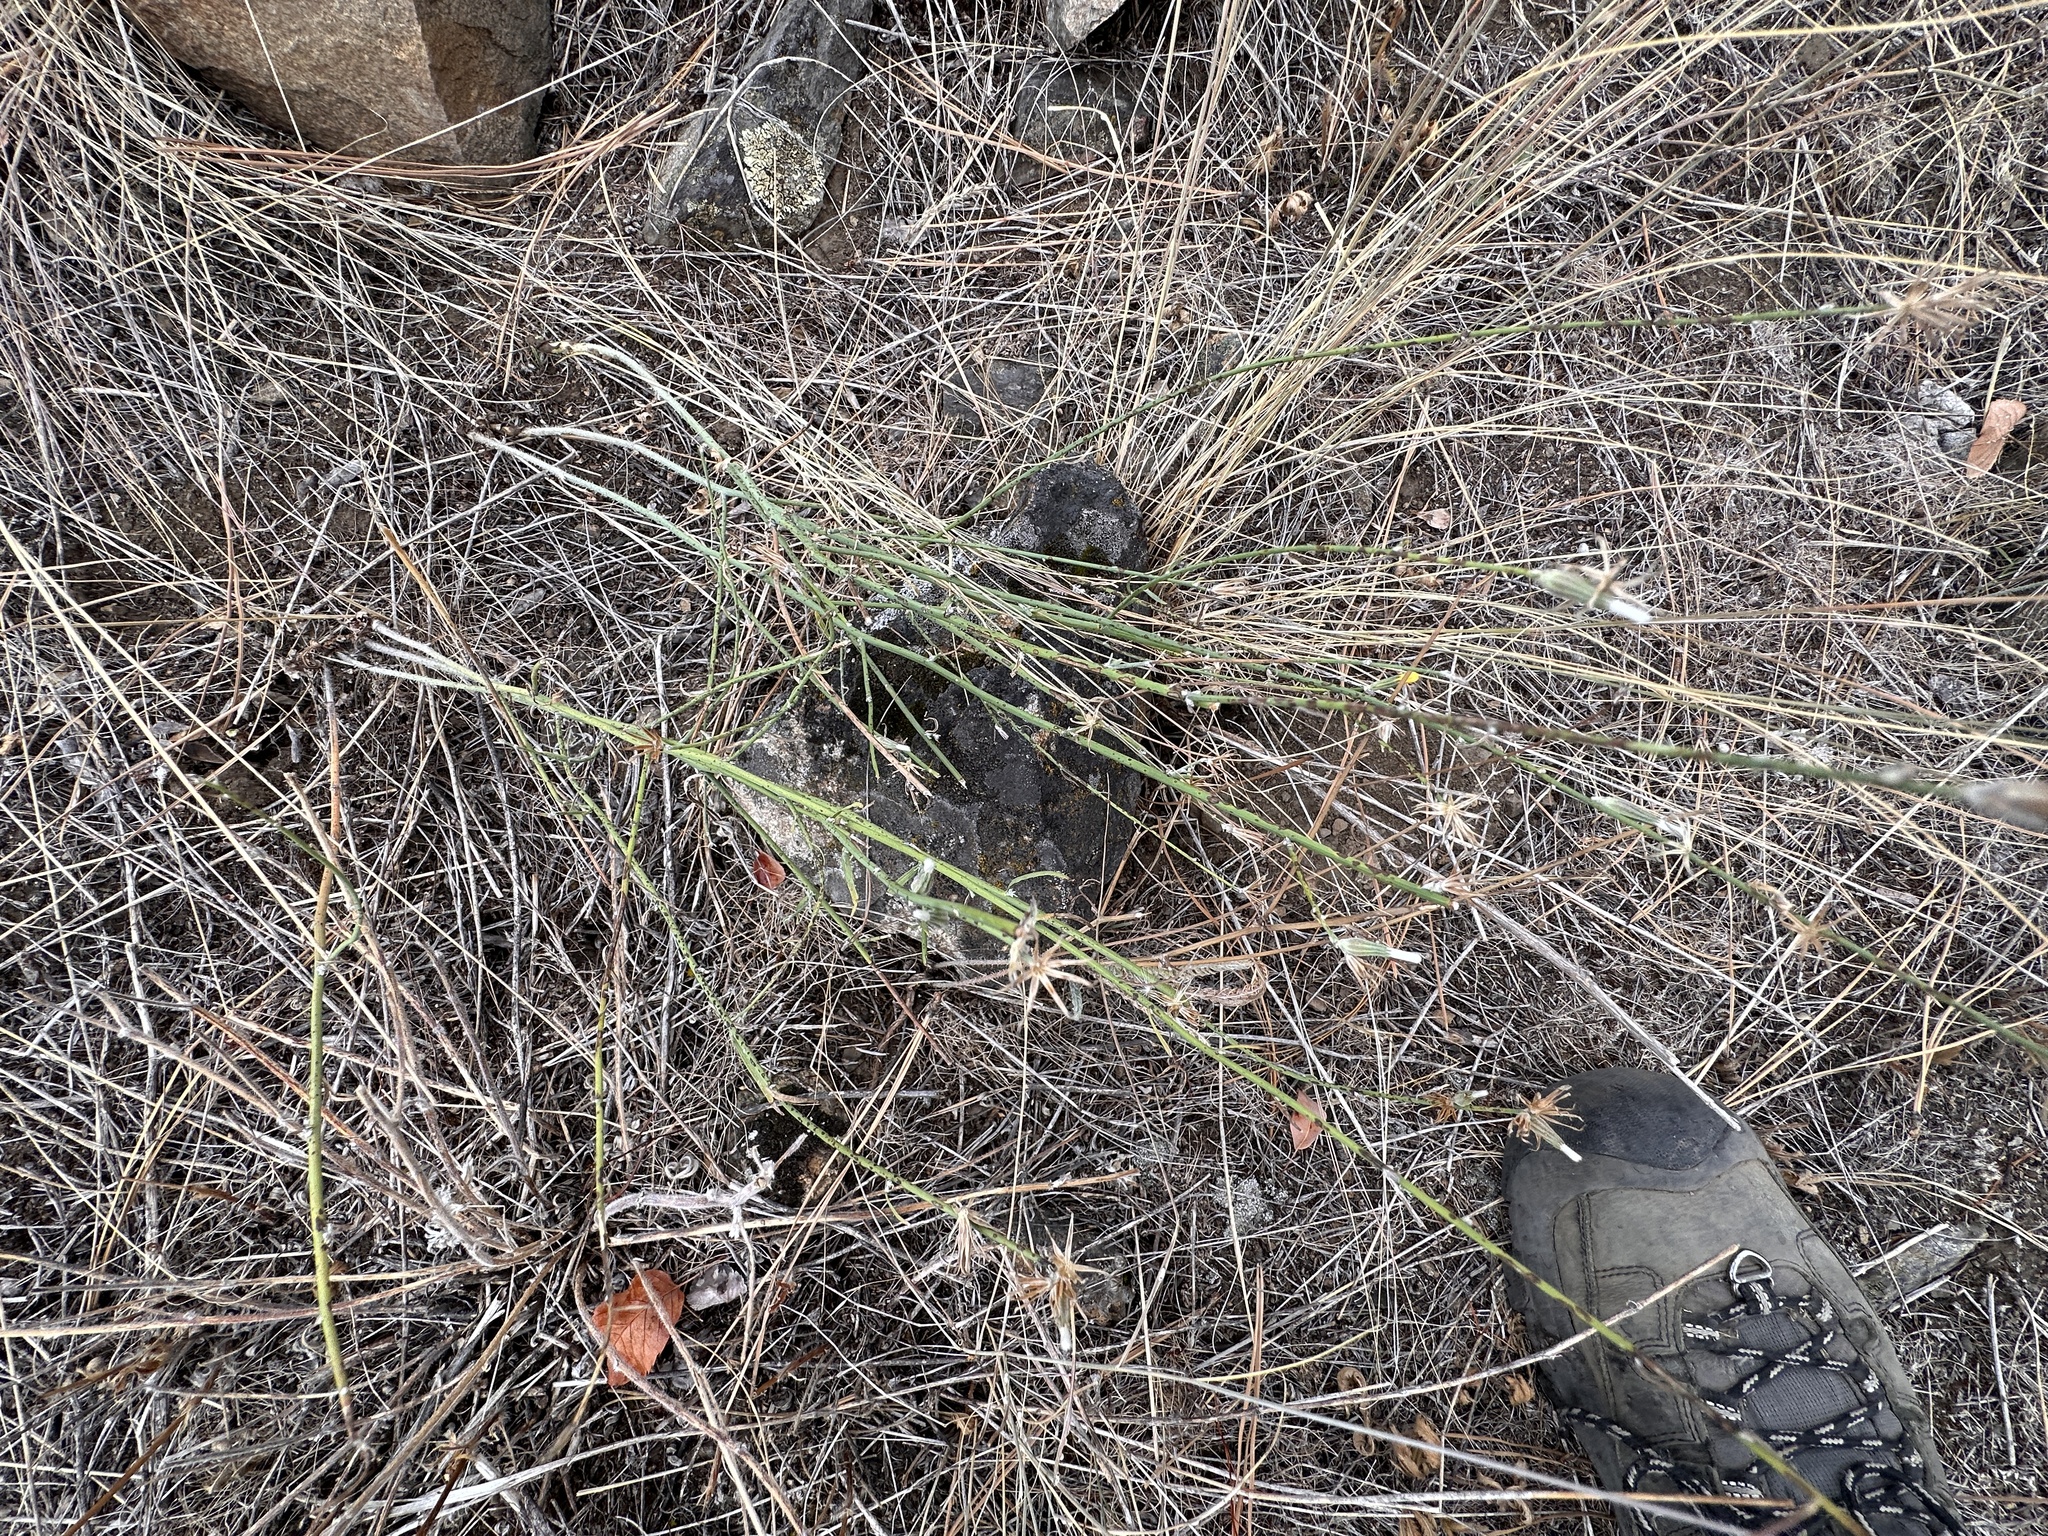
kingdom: Plantae
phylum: Tracheophyta
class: Magnoliopsida
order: Asterales
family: Asteraceae
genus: Chondrilla
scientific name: Chondrilla juncea
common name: Skeleton weed
